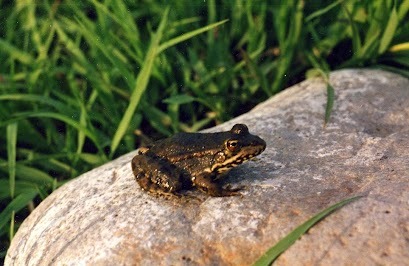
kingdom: Animalia
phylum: Chordata
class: Amphibia
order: Anura
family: Ranidae
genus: Pelophylax
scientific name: Pelophylax ridibundus
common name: Marsh frog
